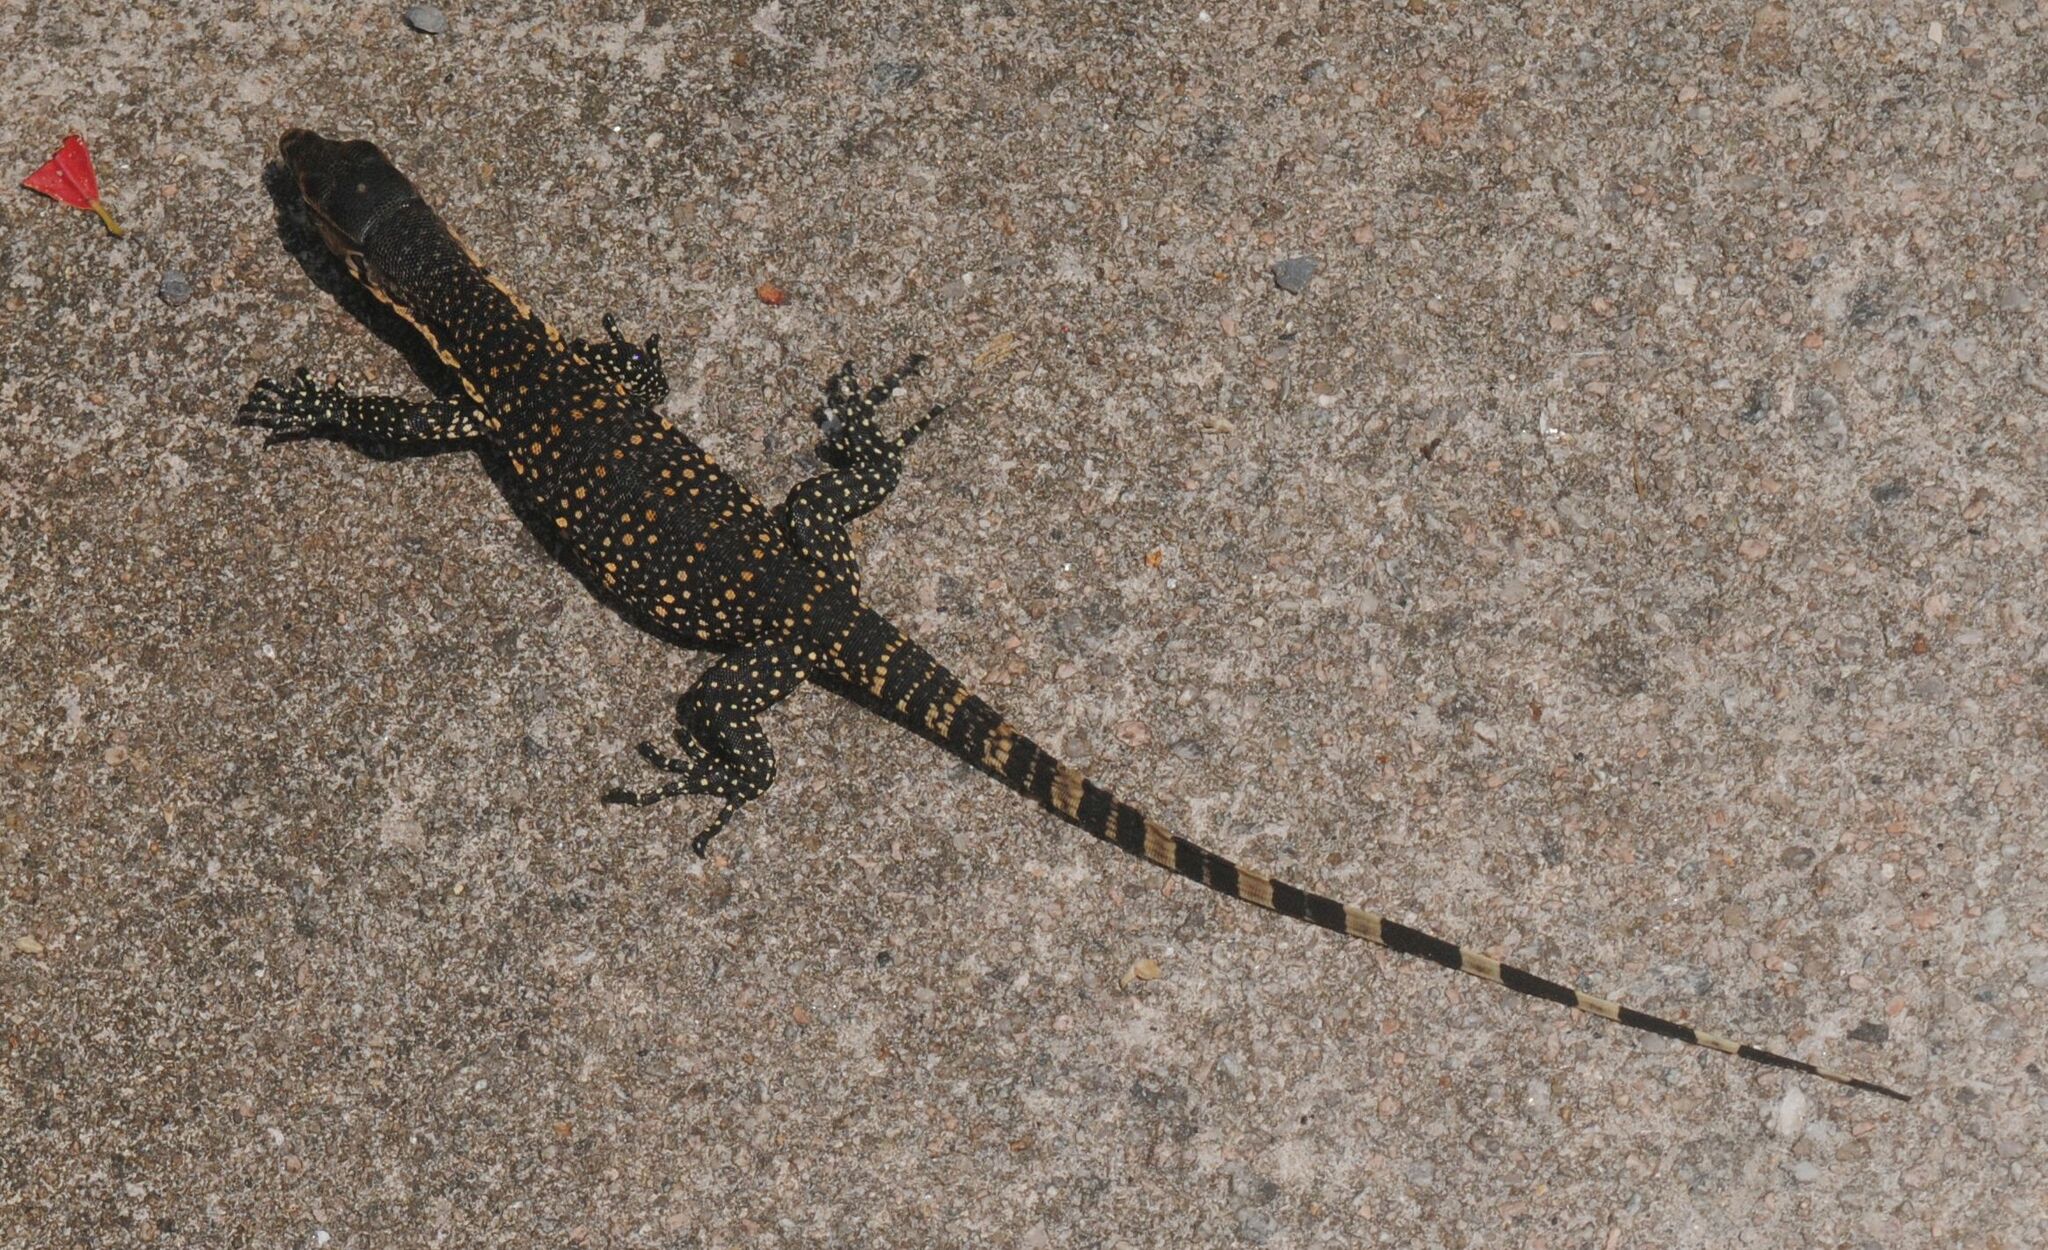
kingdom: Animalia
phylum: Chordata
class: Squamata
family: Varanidae
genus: Varanus
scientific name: Varanus salvator
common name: Common water monitor
